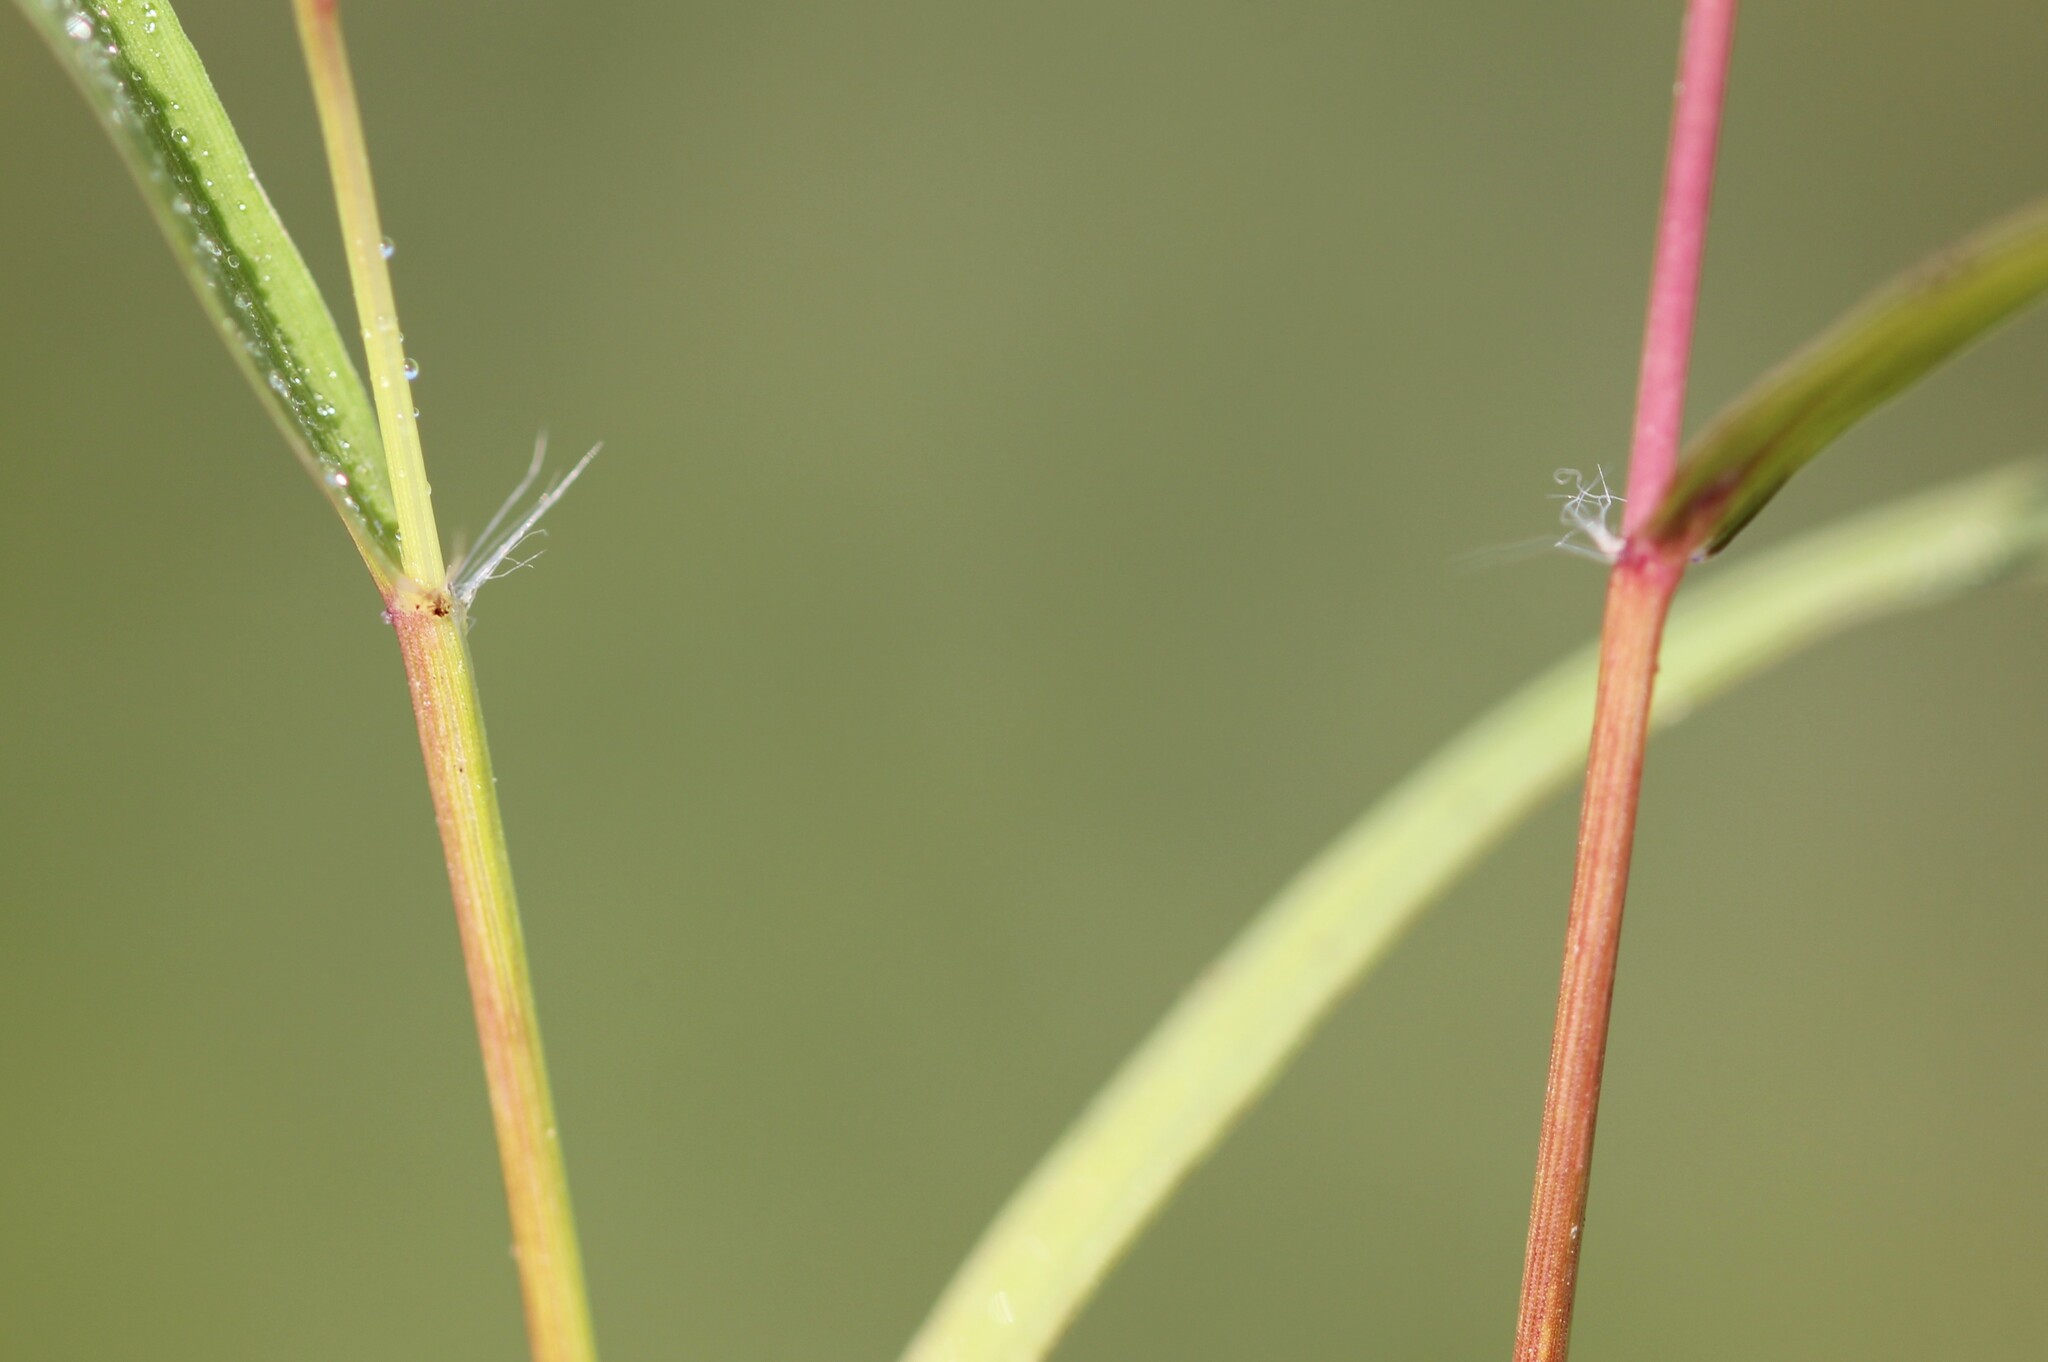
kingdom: Plantae
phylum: Tracheophyta
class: Liliopsida
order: Poales
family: Poaceae
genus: Eragrostis
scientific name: Eragrostis frankii
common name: Frank's lovegrass
